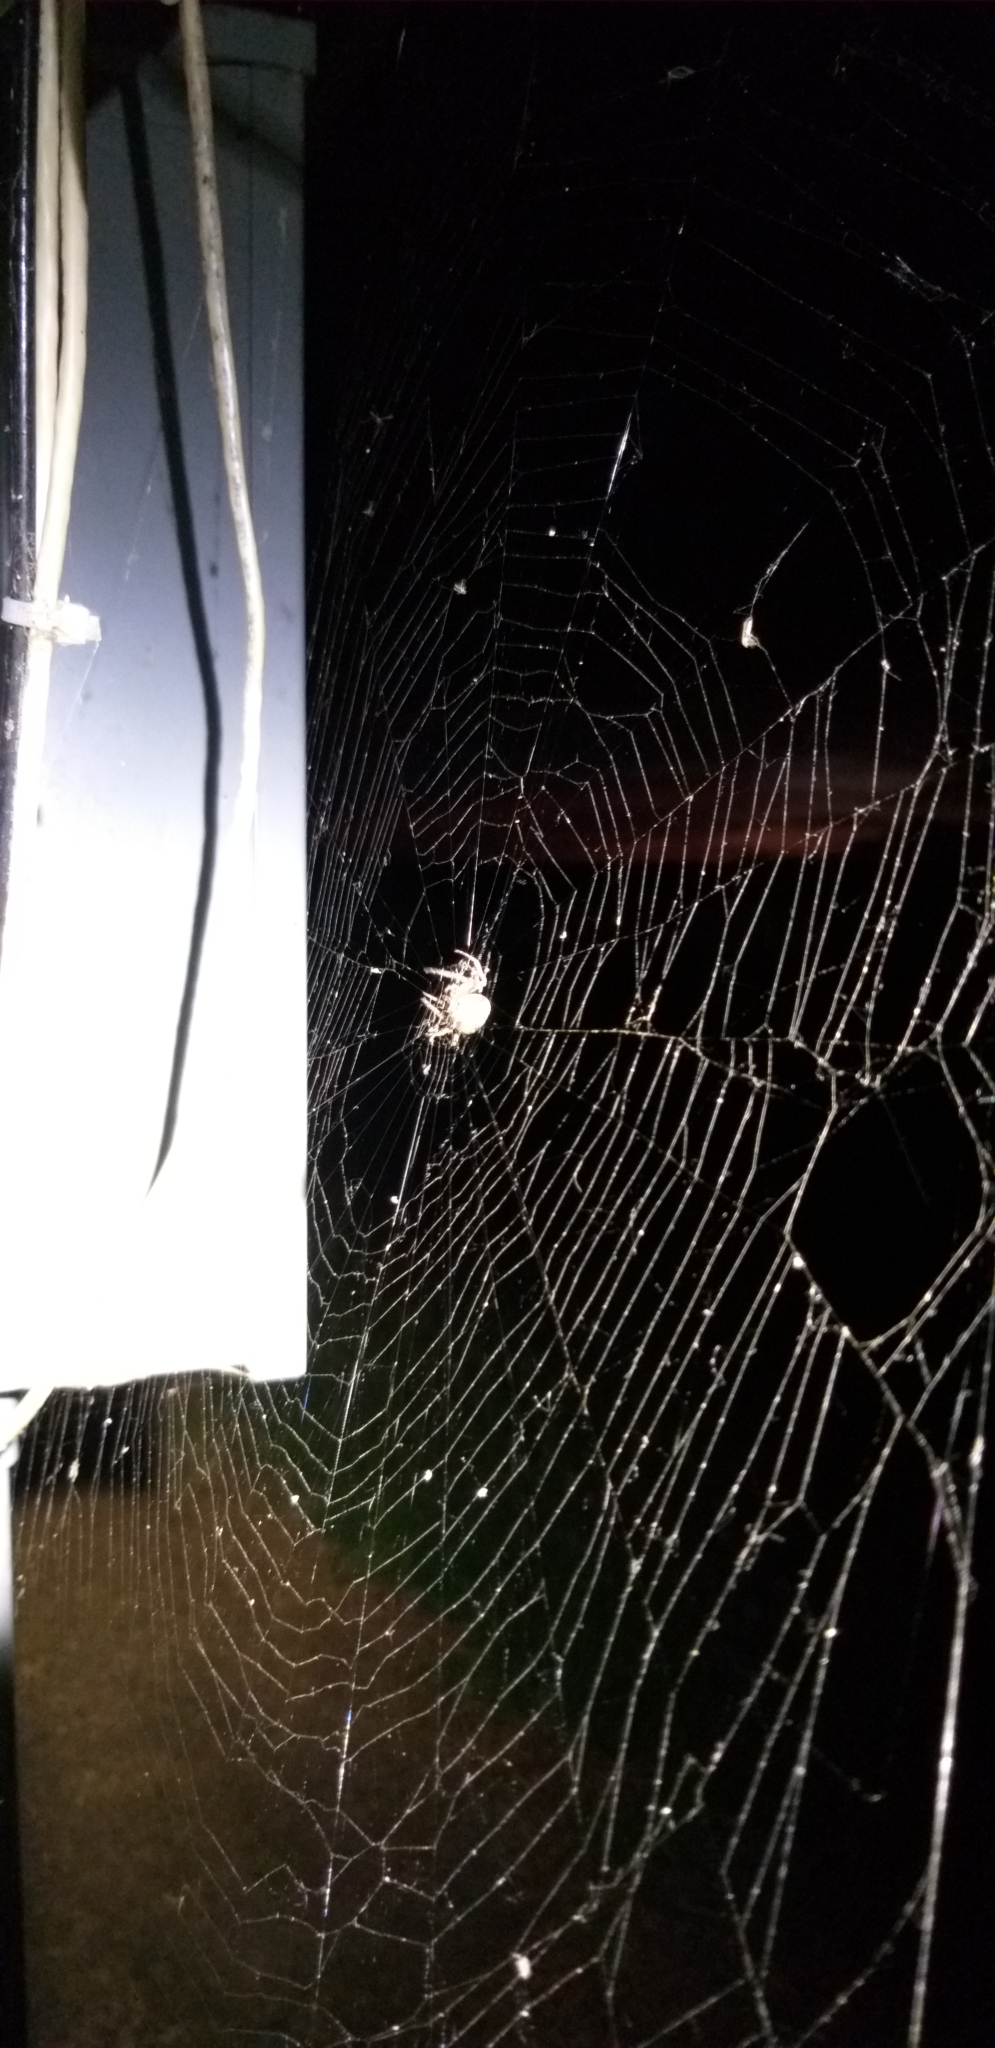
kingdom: Animalia
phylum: Arthropoda
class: Arachnida
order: Araneae
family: Araneidae
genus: Larinioides
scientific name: Larinioides cornutus
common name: Furrow orbweaver
